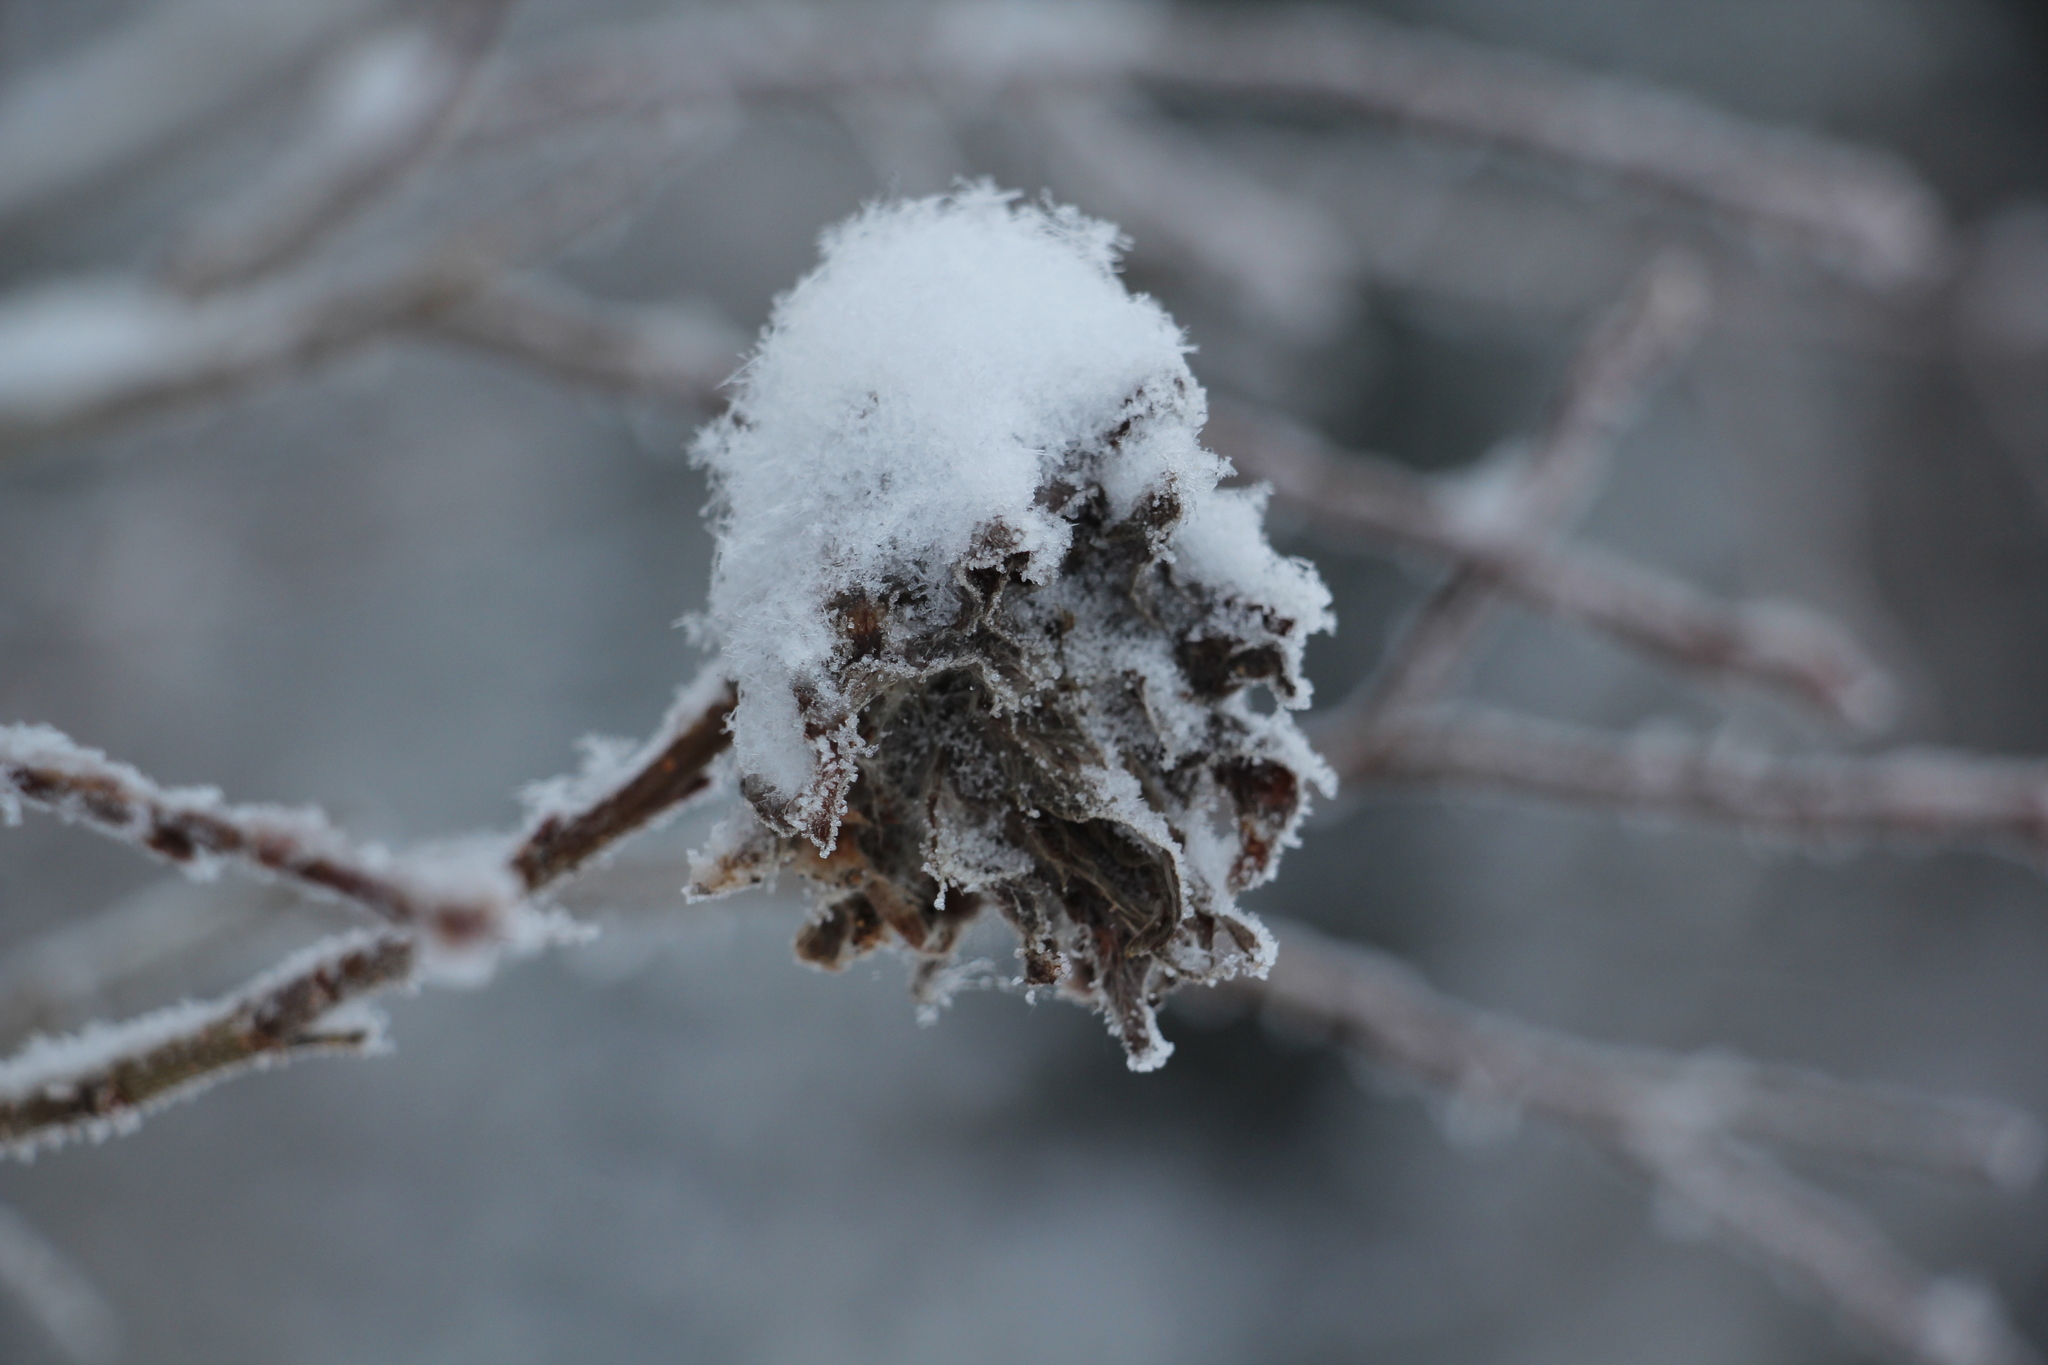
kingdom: Animalia
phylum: Arthropoda
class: Insecta
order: Diptera
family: Cecidomyiidae
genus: Rabdophaga
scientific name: Rabdophaga rosaria
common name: Willow rose gall midge
